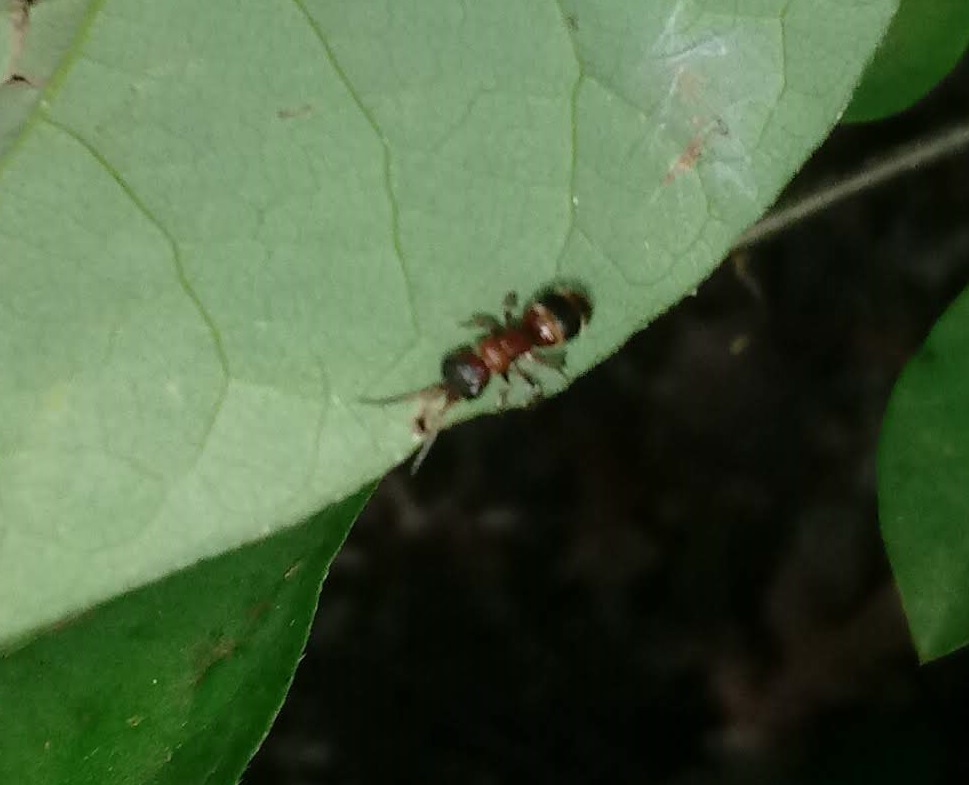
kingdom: Animalia
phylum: Arthropoda
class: Insecta
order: Hymenoptera
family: Mutillidae
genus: Myrmosa
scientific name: Myrmosa unicolor
